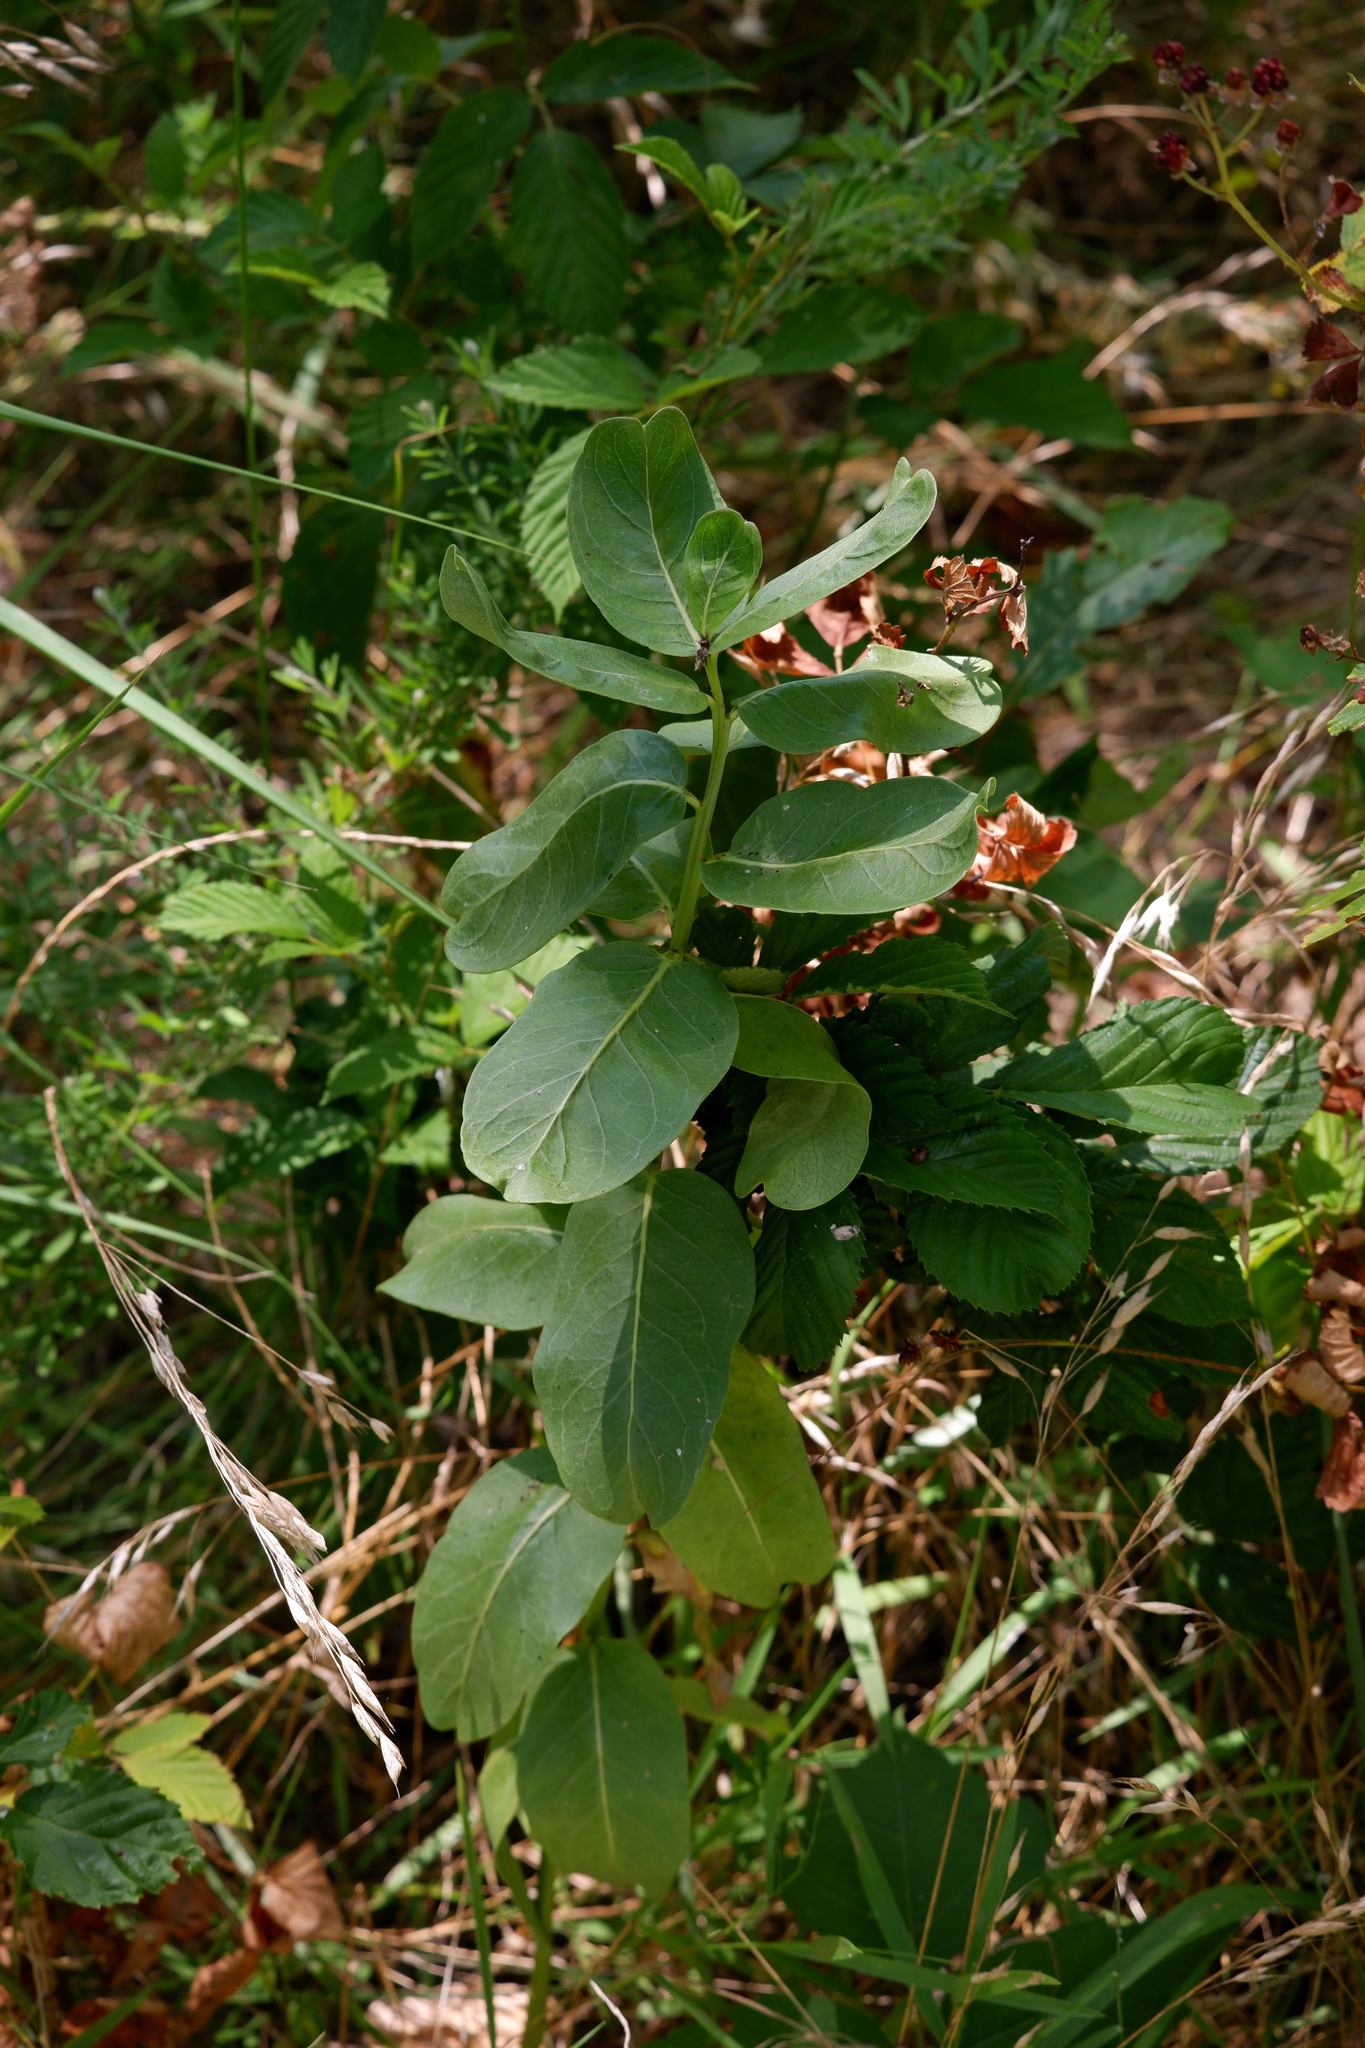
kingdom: Plantae
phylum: Tracheophyta
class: Magnoliopsida
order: Gentianales
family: Apocynaceae
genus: Asclepias
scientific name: Asclepias viridis
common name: Antelope-horns
